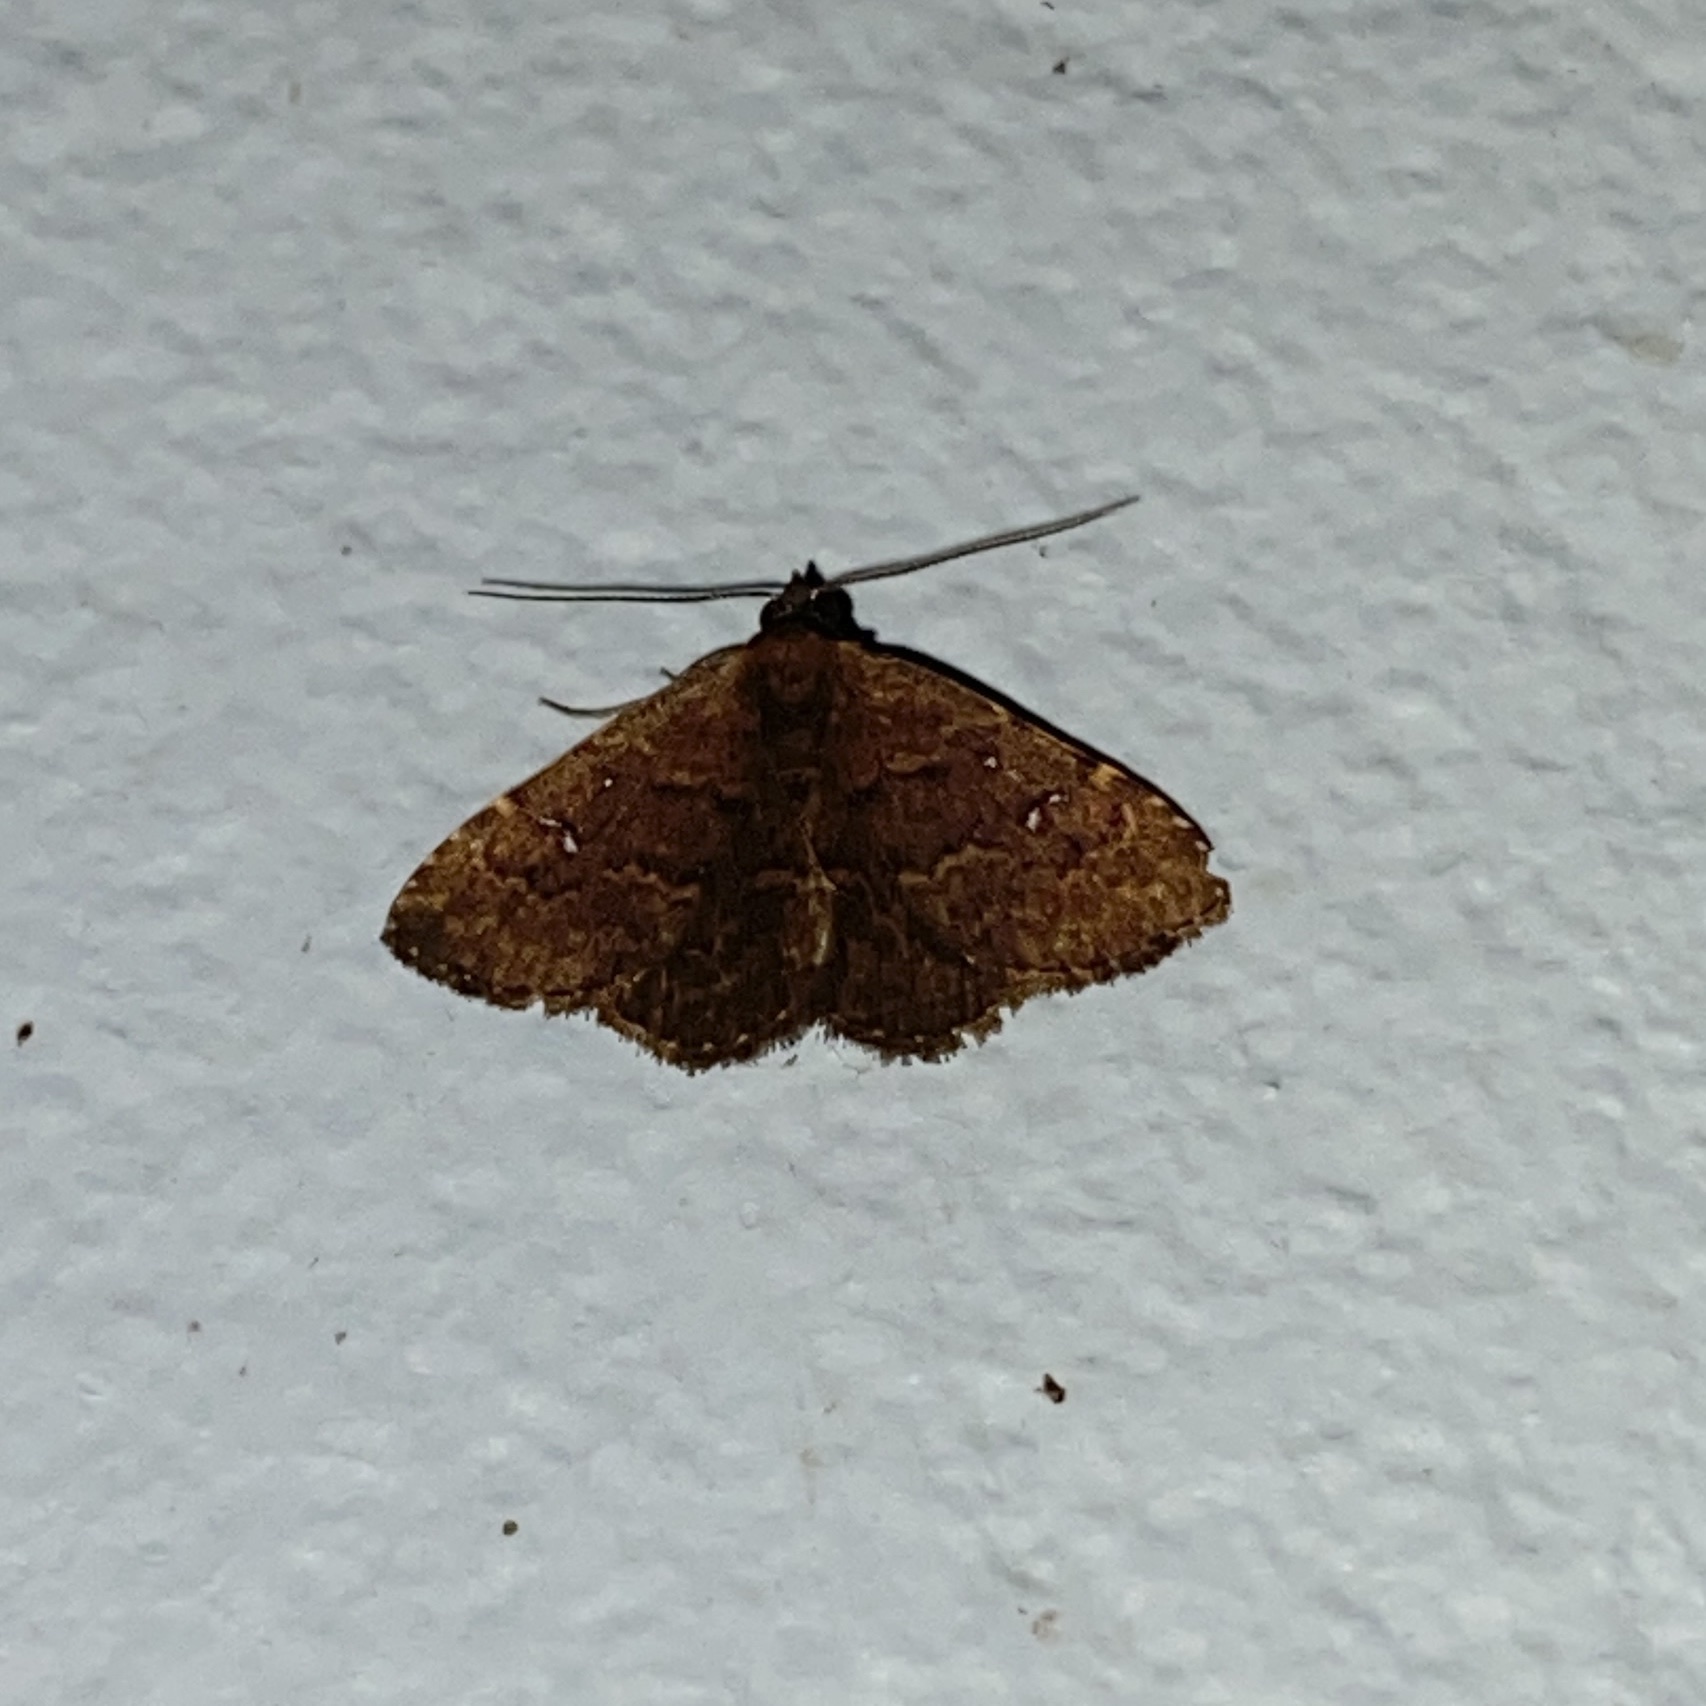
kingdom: Animalia
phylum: Arthropoda
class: Insecta
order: Lepidoptera
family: Erebidae
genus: Ostha
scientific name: Ostha coryphata
